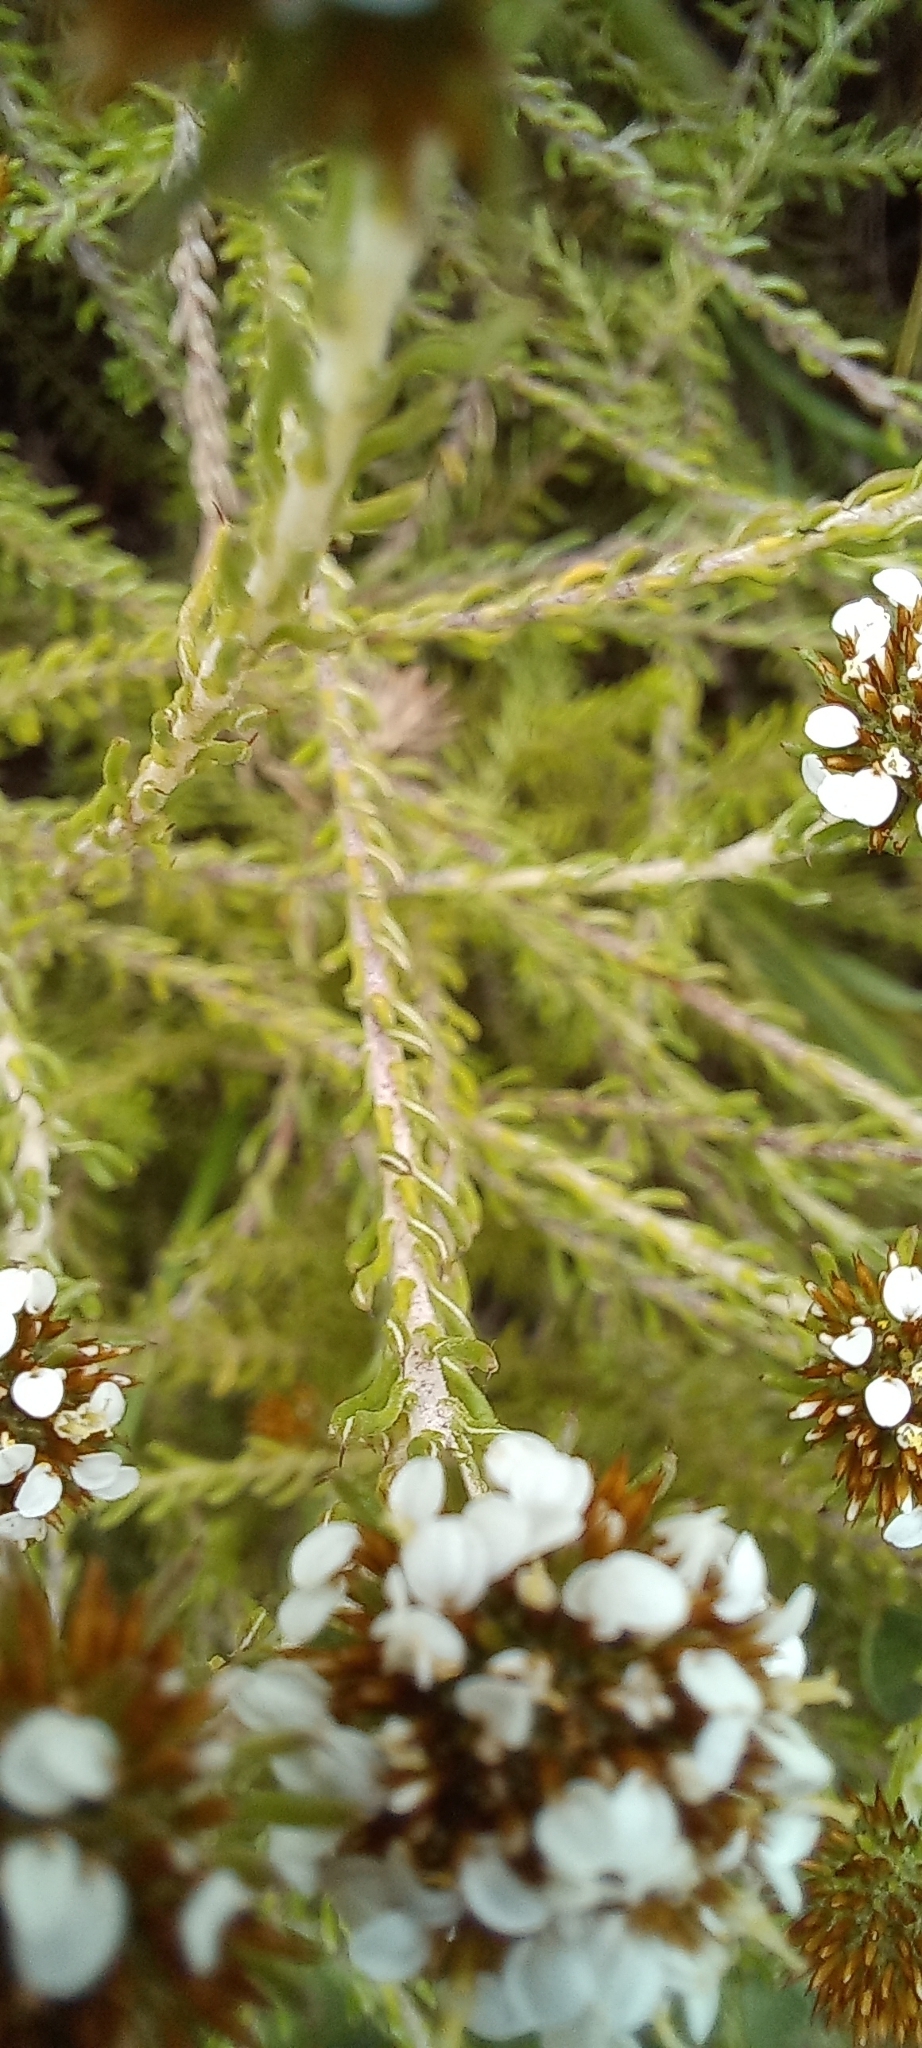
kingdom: Plantae
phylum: Tracheophyta
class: Magnoliopsida
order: Asterales
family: Asteraceae
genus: Disparago
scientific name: Disparago anomala
